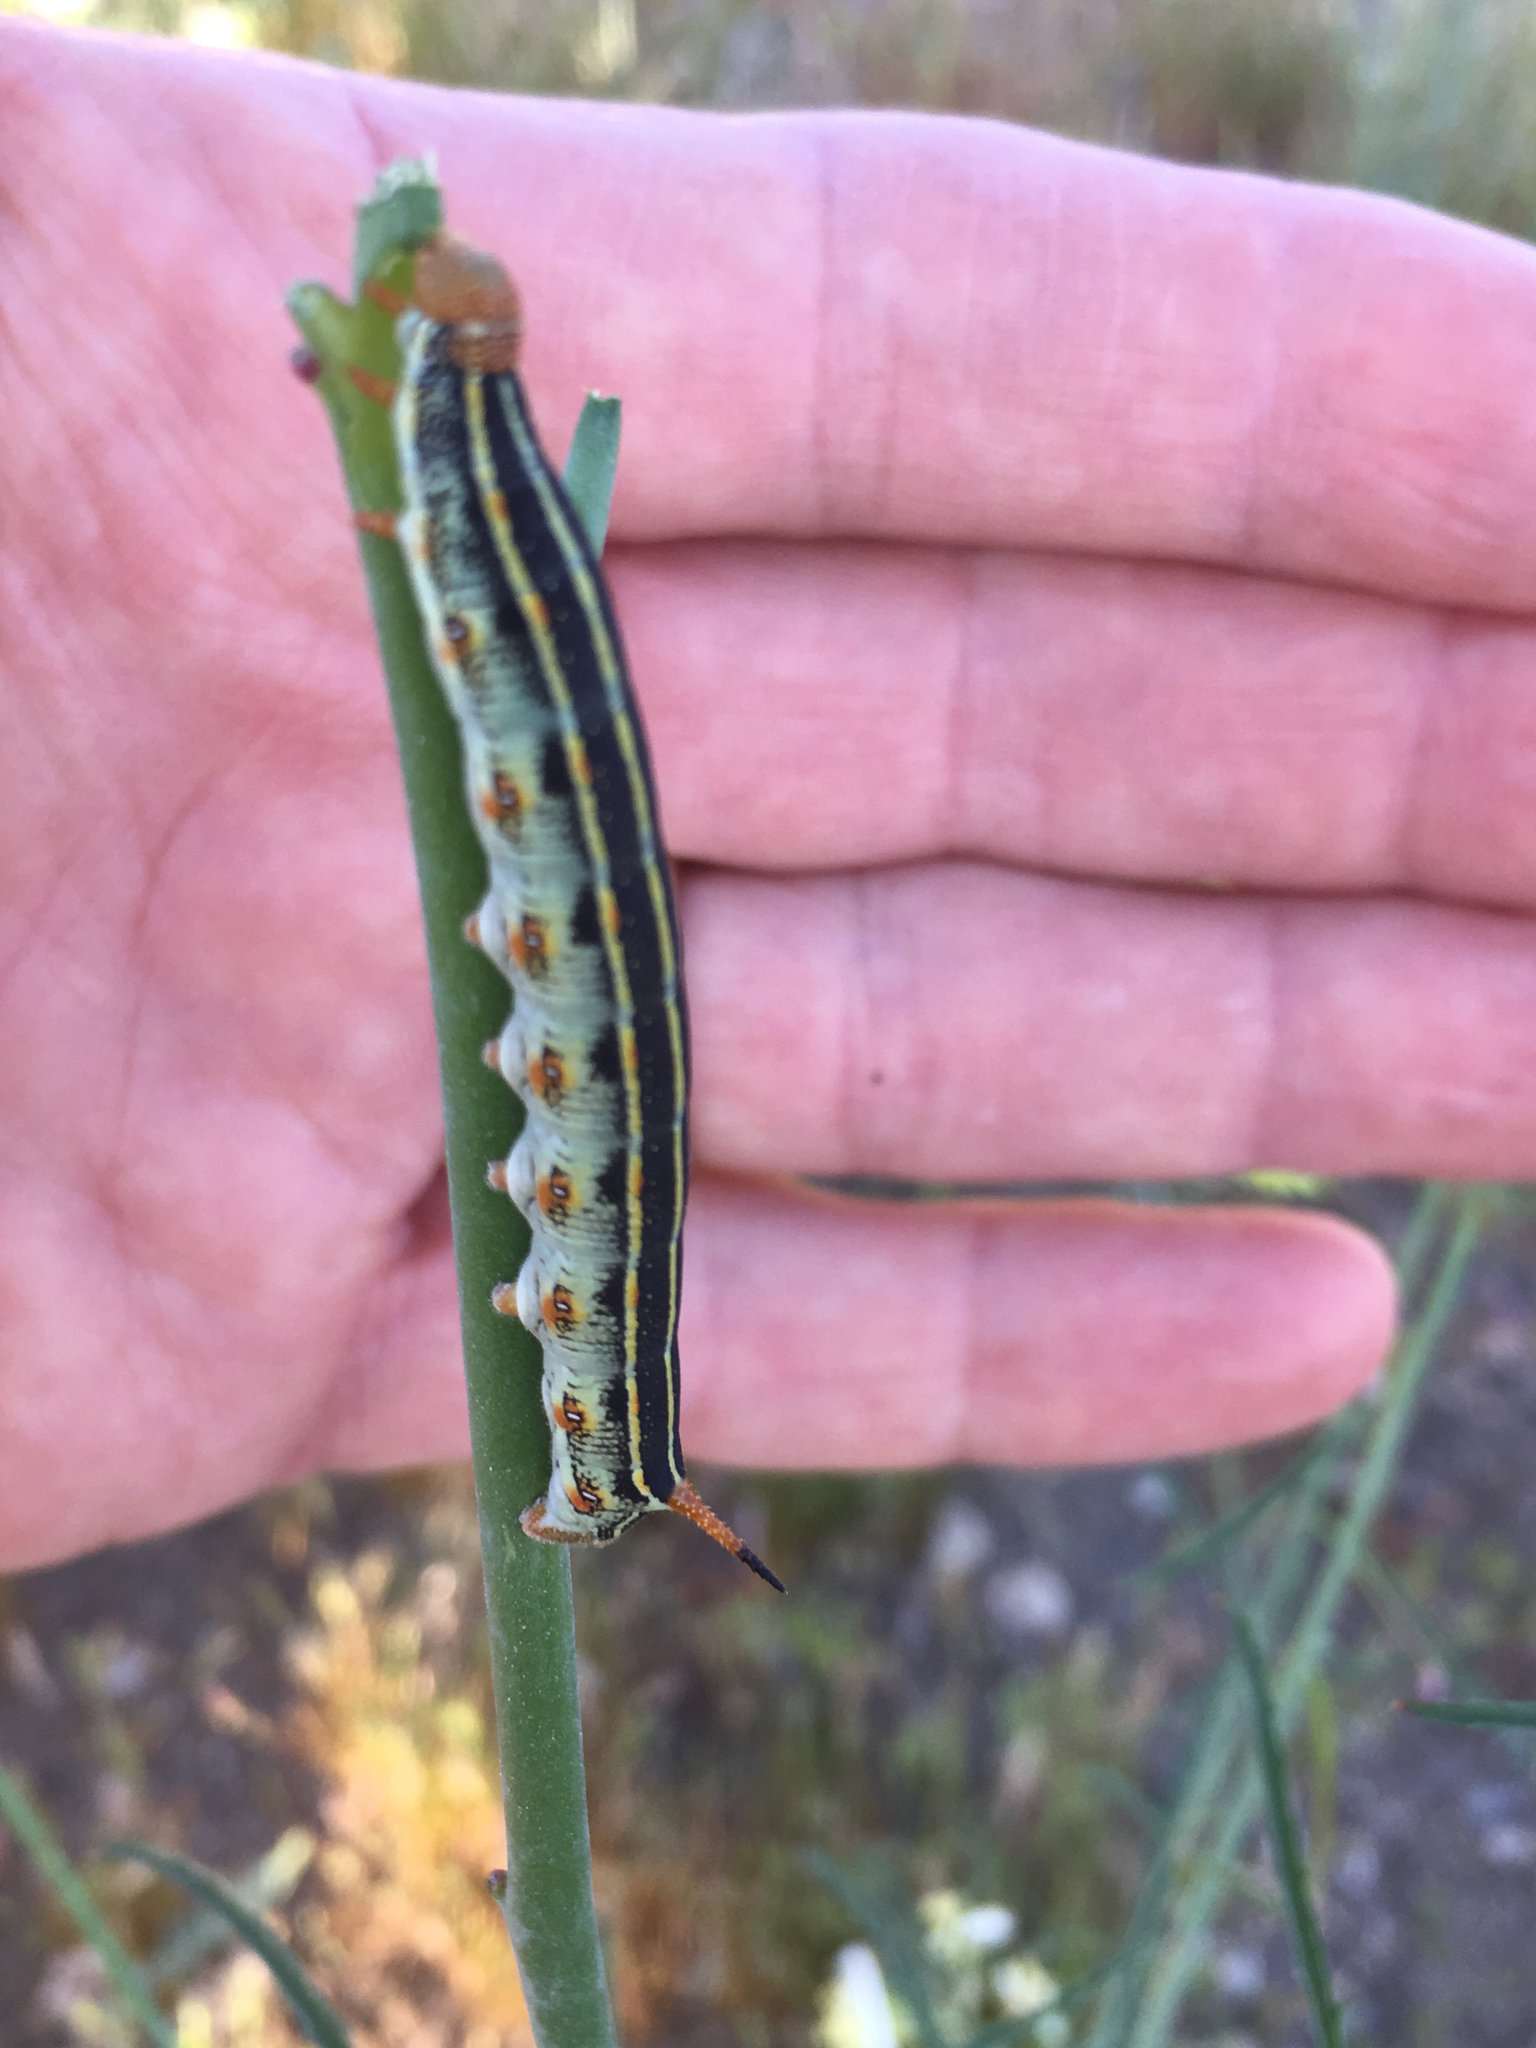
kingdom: Animalia
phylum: Arthropoda
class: Insecta
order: Lepidoptera
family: Sphingidae
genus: Hyles
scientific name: Hyles lineata
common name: White-lined sphinx
